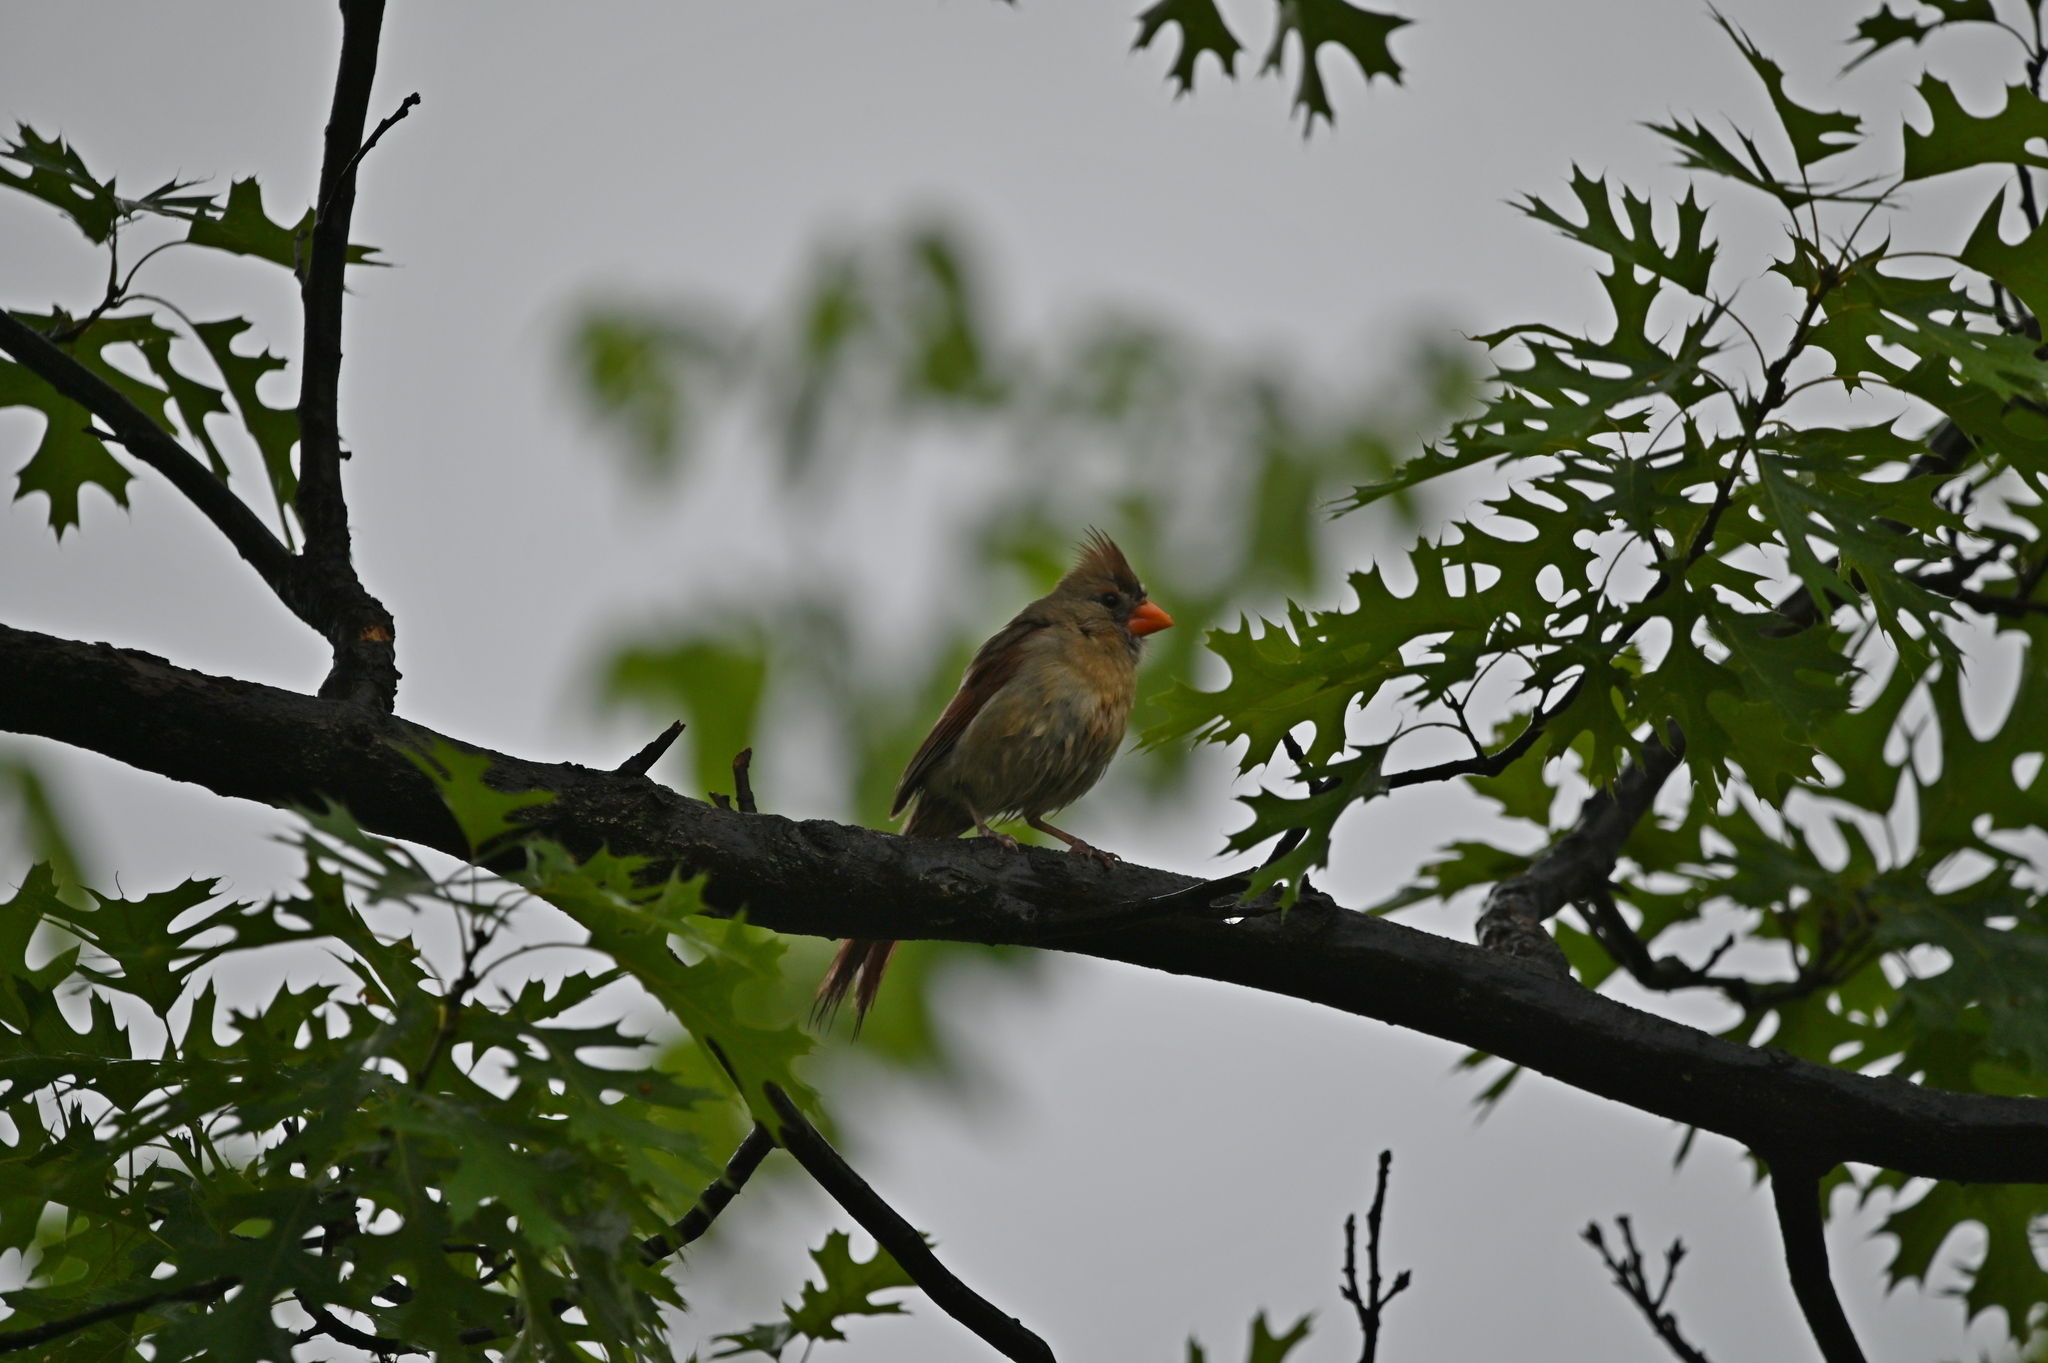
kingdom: Animalia
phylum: Chordata
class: Aves
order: Passeriformes
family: Cardinalidae
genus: Cardinalis
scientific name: Cardinalis cardinalis
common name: Northern cardinal
